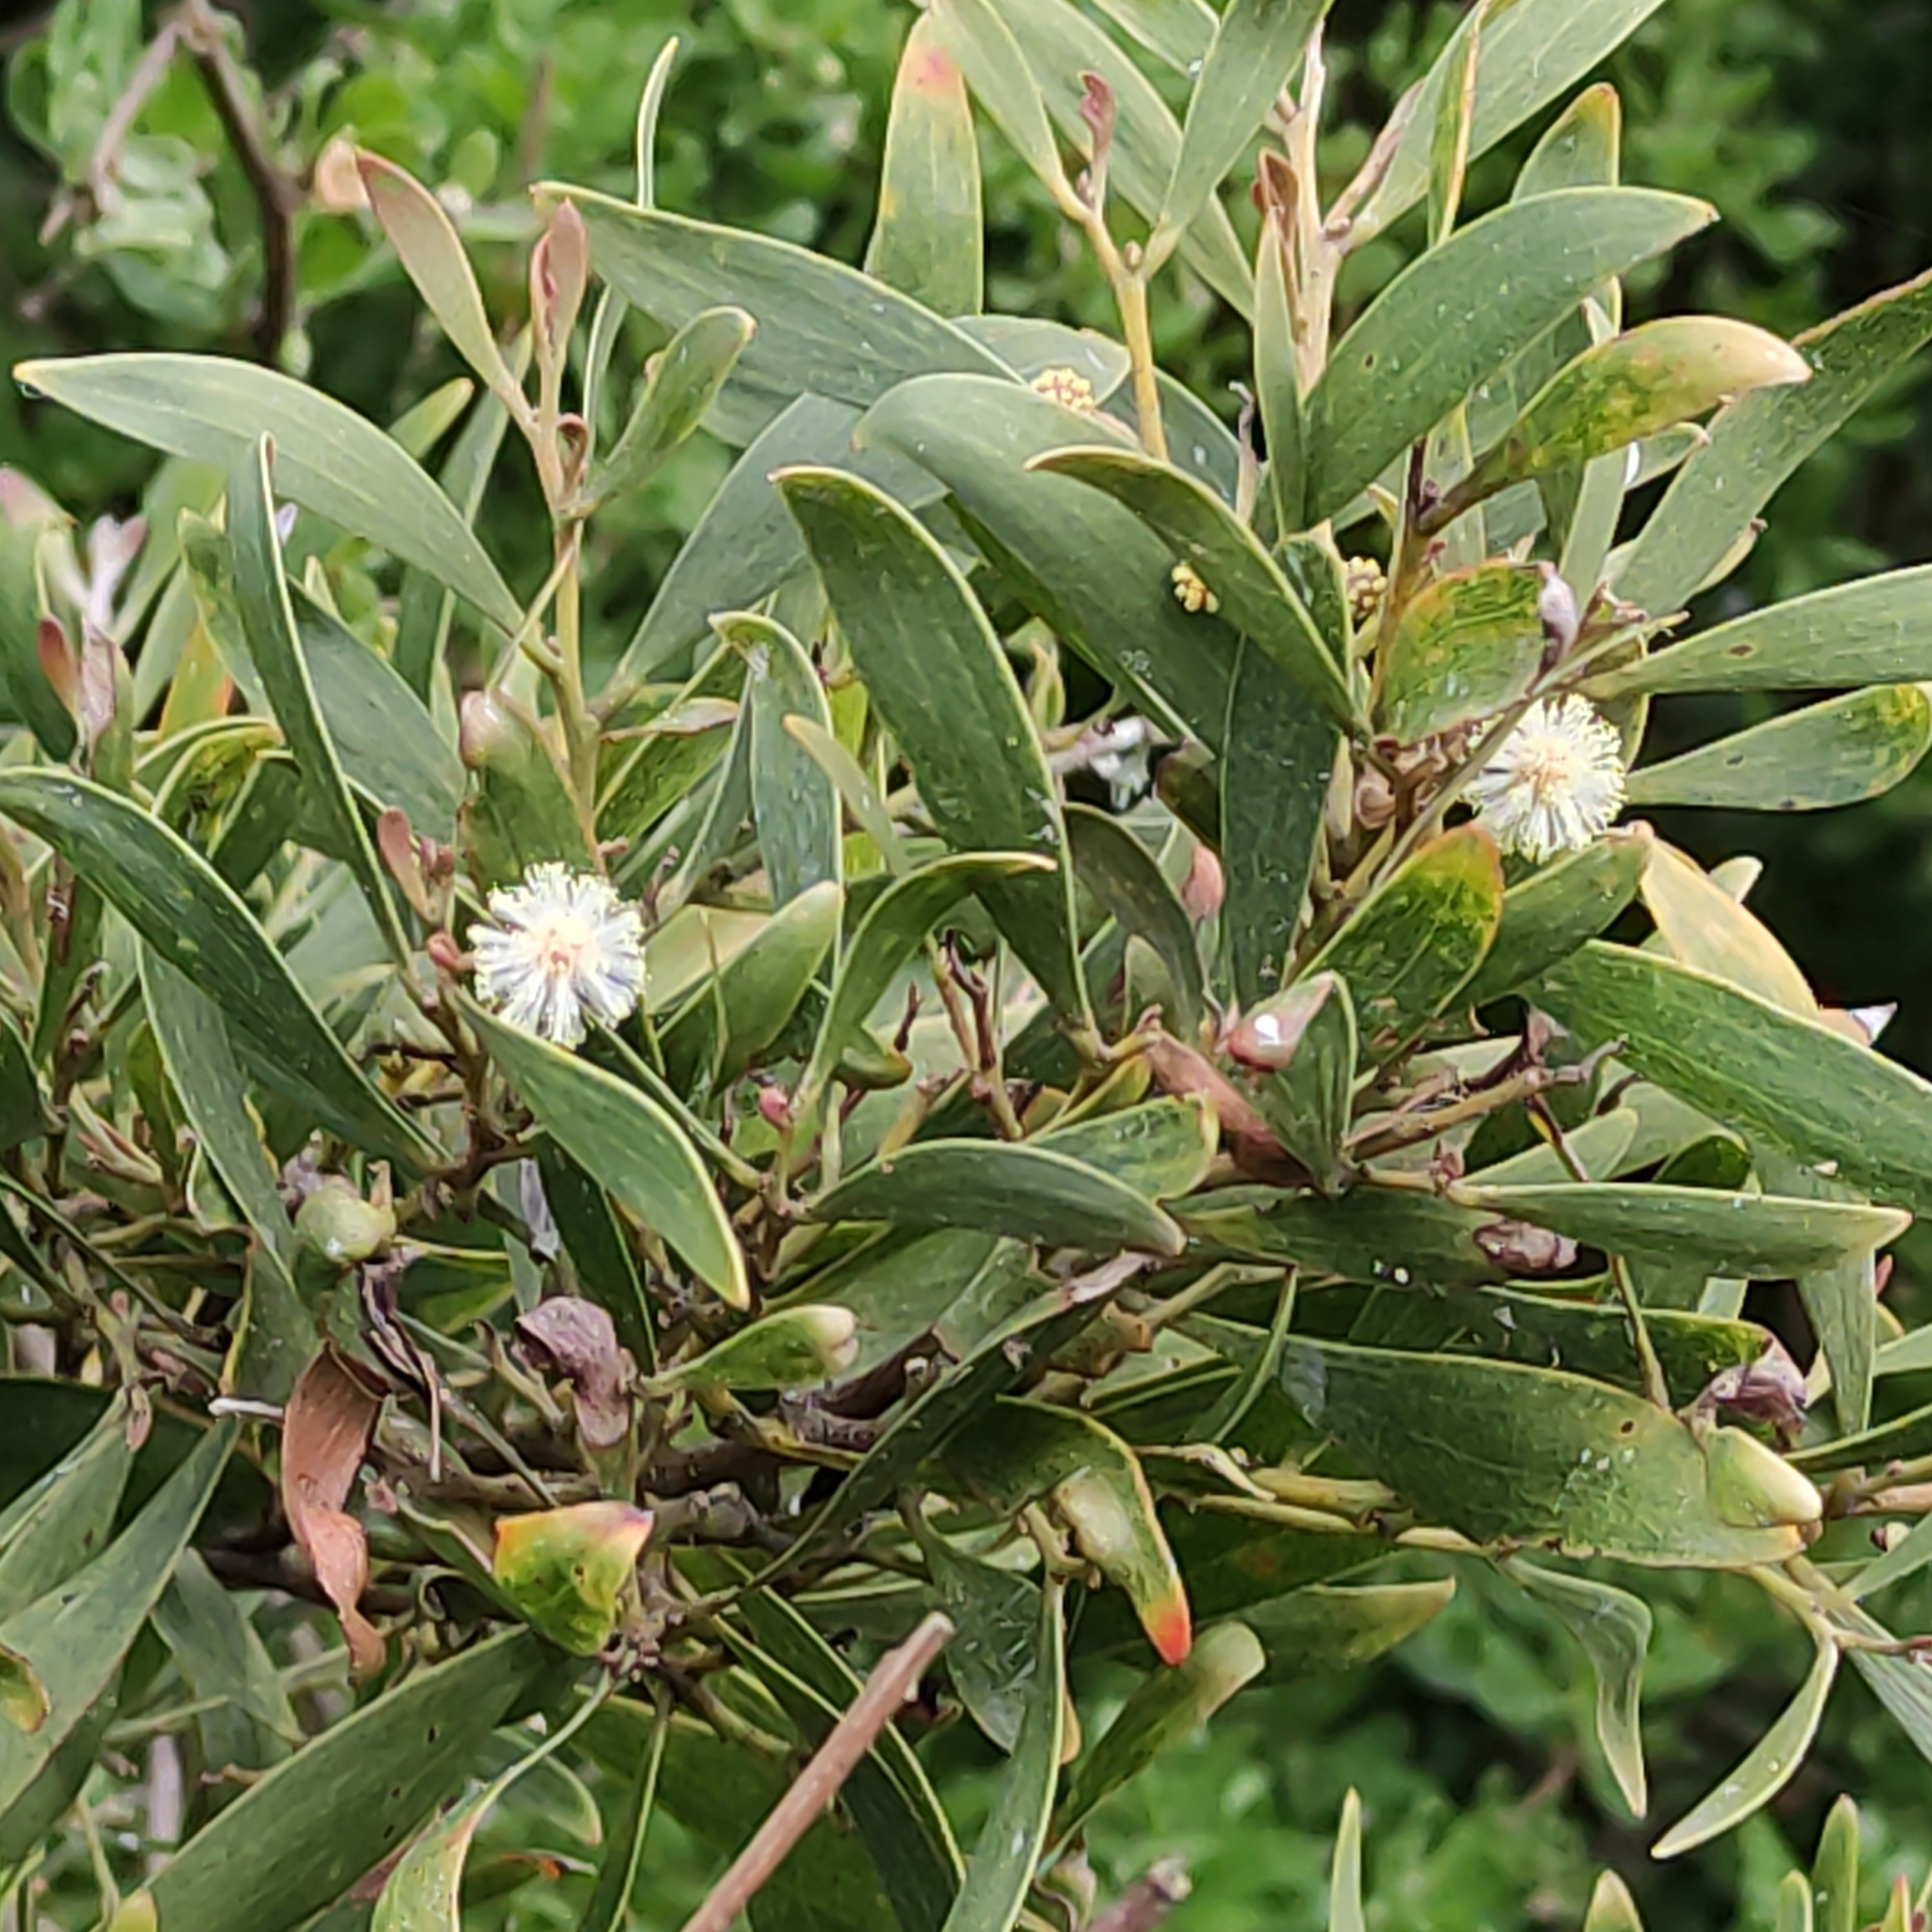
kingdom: Plantae
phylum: Tracheophyta
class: Magnoliopsida
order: Fabales
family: Fabaceae
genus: Acacia
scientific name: Acacia melanoxylon
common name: Blackwood
